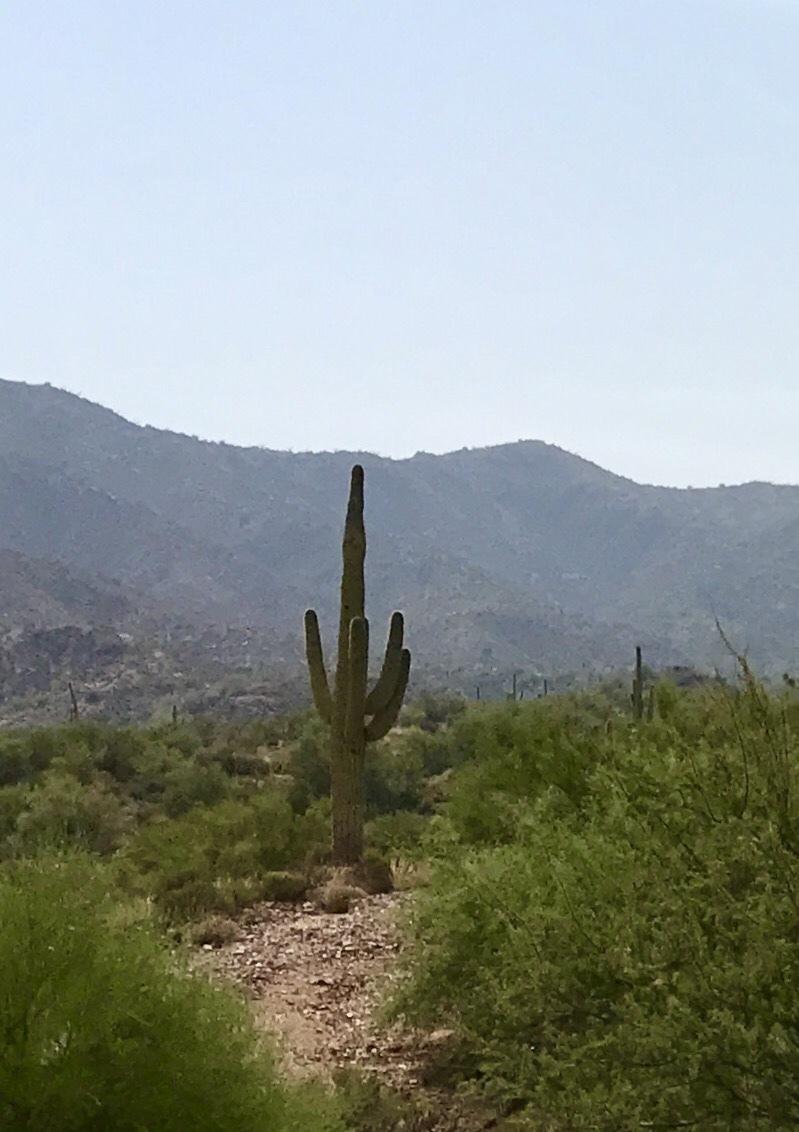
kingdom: Plantae
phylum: Tracheophyta
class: Magnoliopsida
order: Caryophyllales
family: Cactaceae
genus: Carnegiea
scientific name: Carnegiea gigantea
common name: Saguaro
